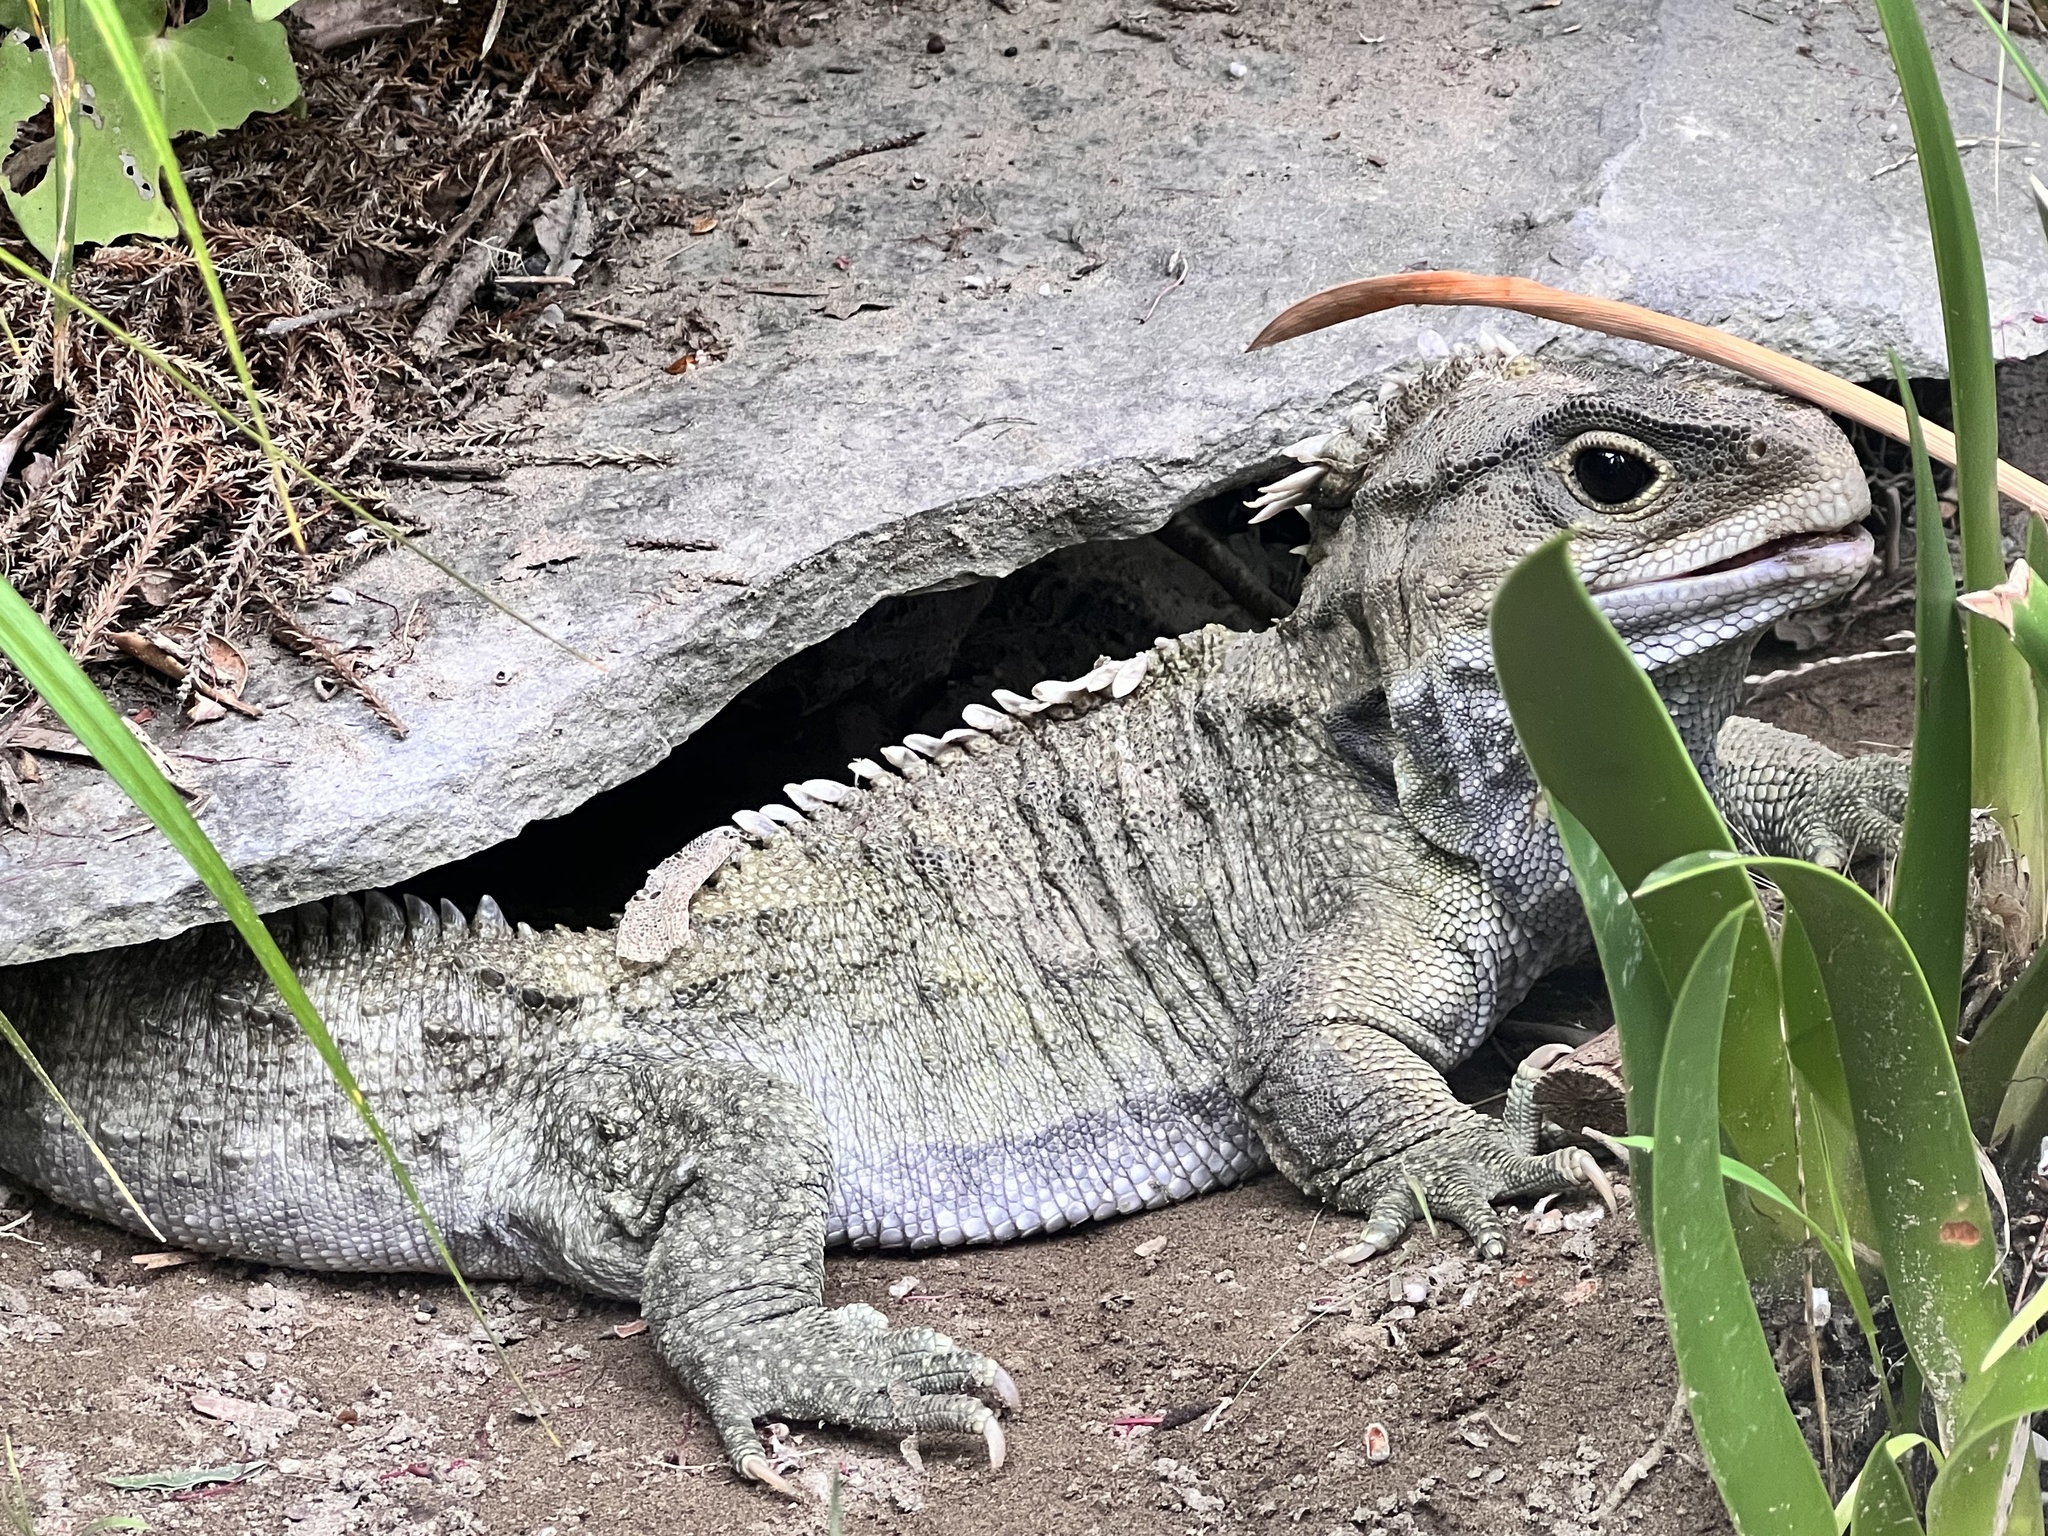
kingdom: Animalia
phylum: Chordata
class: Sphenodontia
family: Sphenodontidae
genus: Sphenodon
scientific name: Sphenodon punctatus
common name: Tuatara
